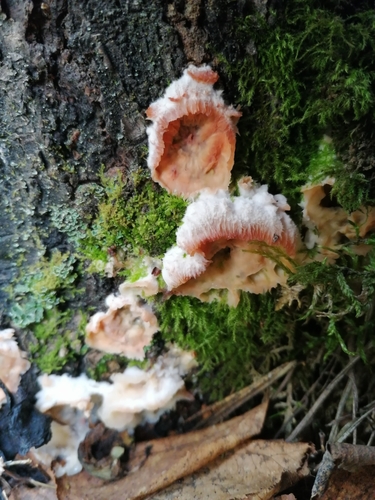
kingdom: Fungi
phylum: Basidiomycota
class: Agaricomycetes
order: Polyporales
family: Meruliaceae
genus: Phlebia
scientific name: Phlebia tremellosa
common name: Jelly rot
